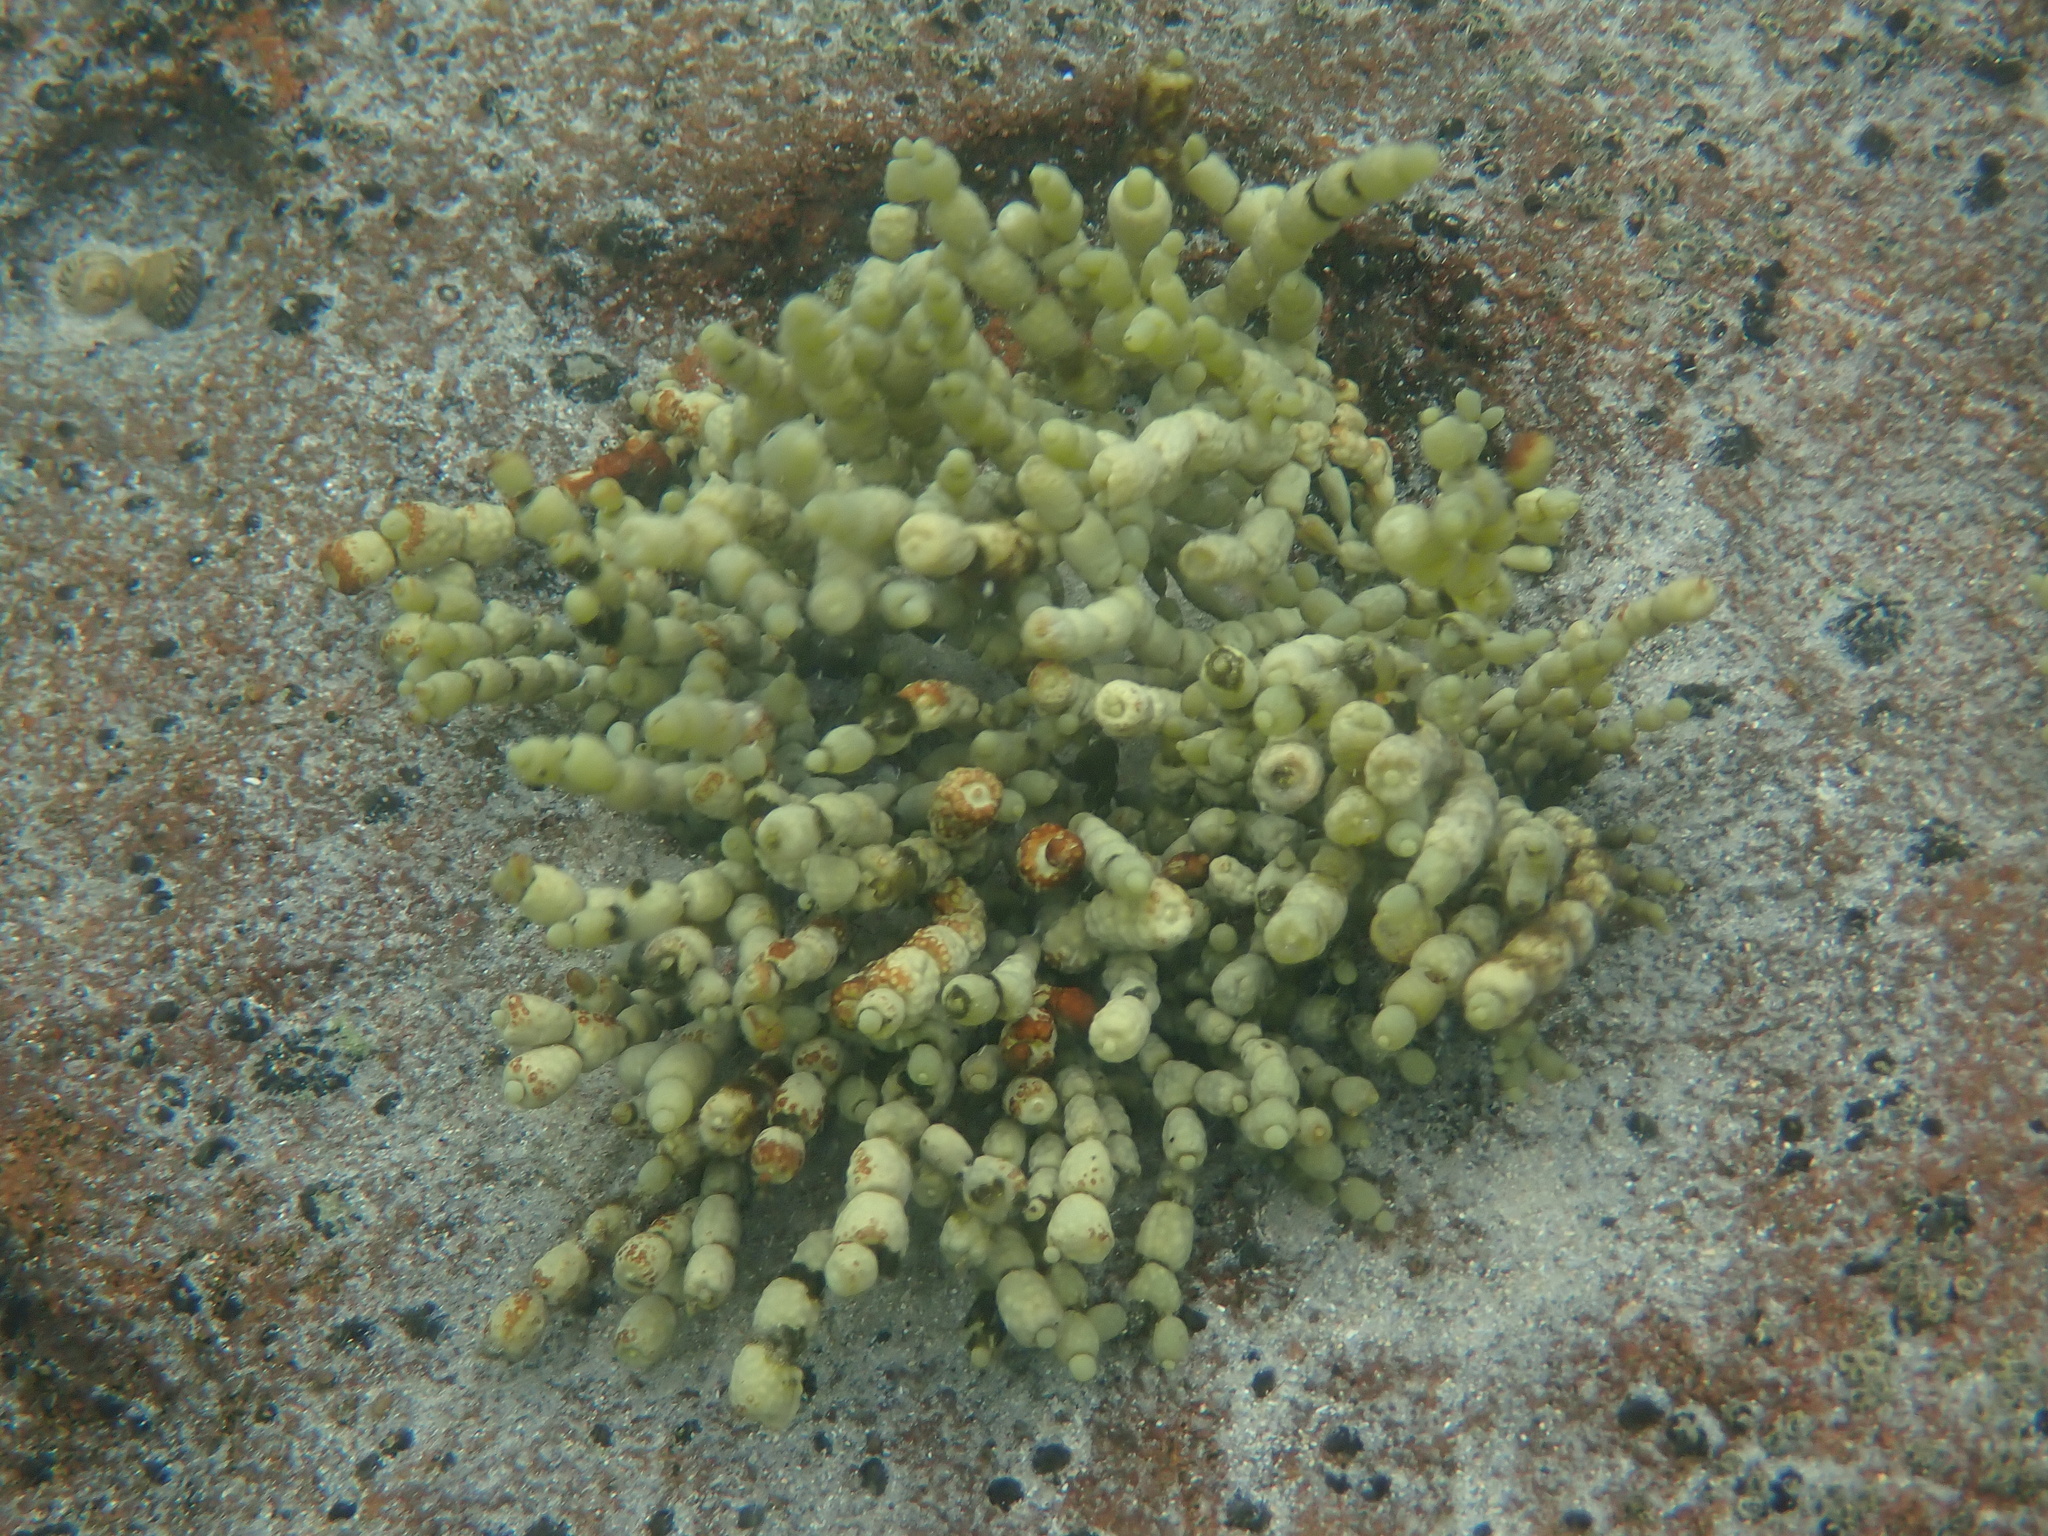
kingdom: Chromista
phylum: Ochrophyta
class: Phaeophyceae
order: Fucales
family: Hormosiraceae
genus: Hormosira
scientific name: Hormosira banksii
